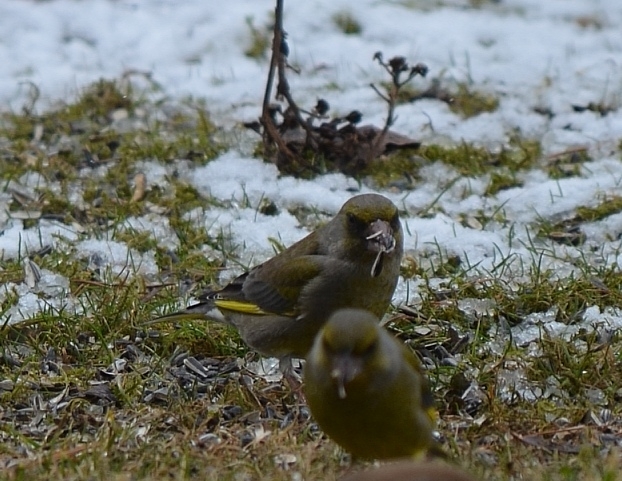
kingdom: Plantae
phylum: Tracheophyta
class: Liliopsida
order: Poales
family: Poaceae
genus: Chloris
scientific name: Chloris chloris
